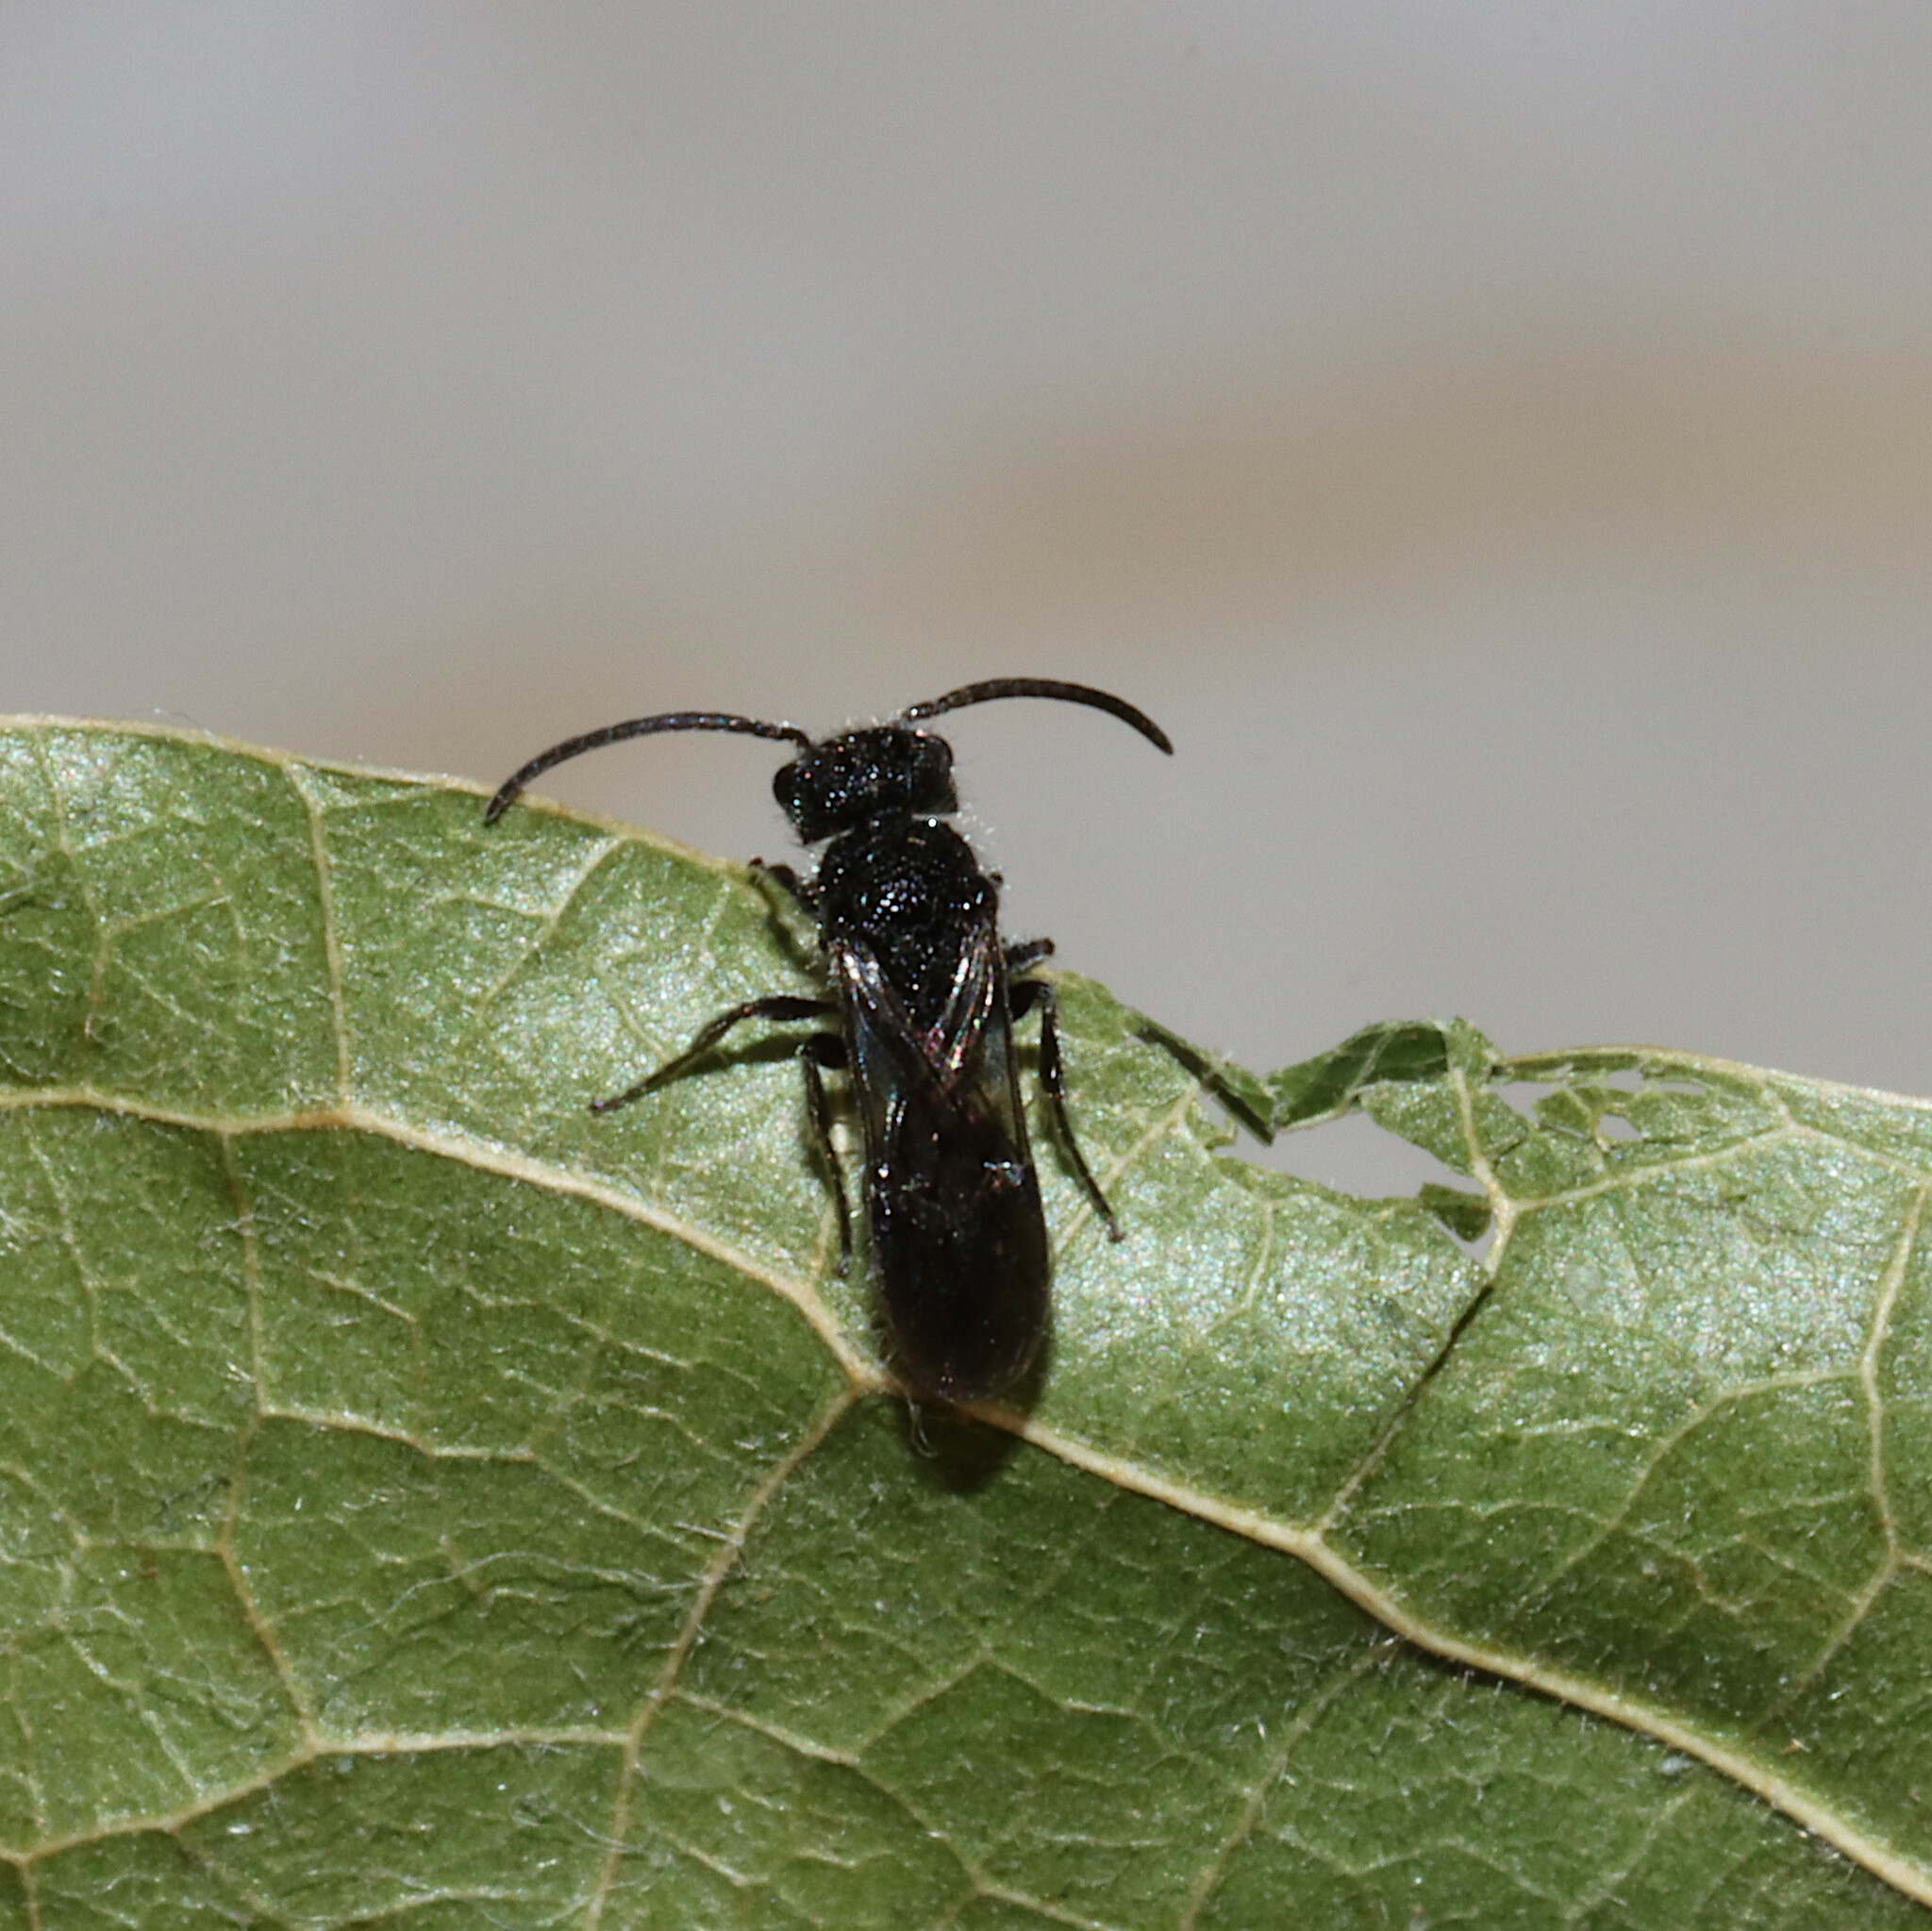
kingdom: Animalia
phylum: Arthropoda
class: Insecta
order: Hymenoptera
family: Mutillidae
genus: Pseudomethoca
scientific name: Pseudomethoca
